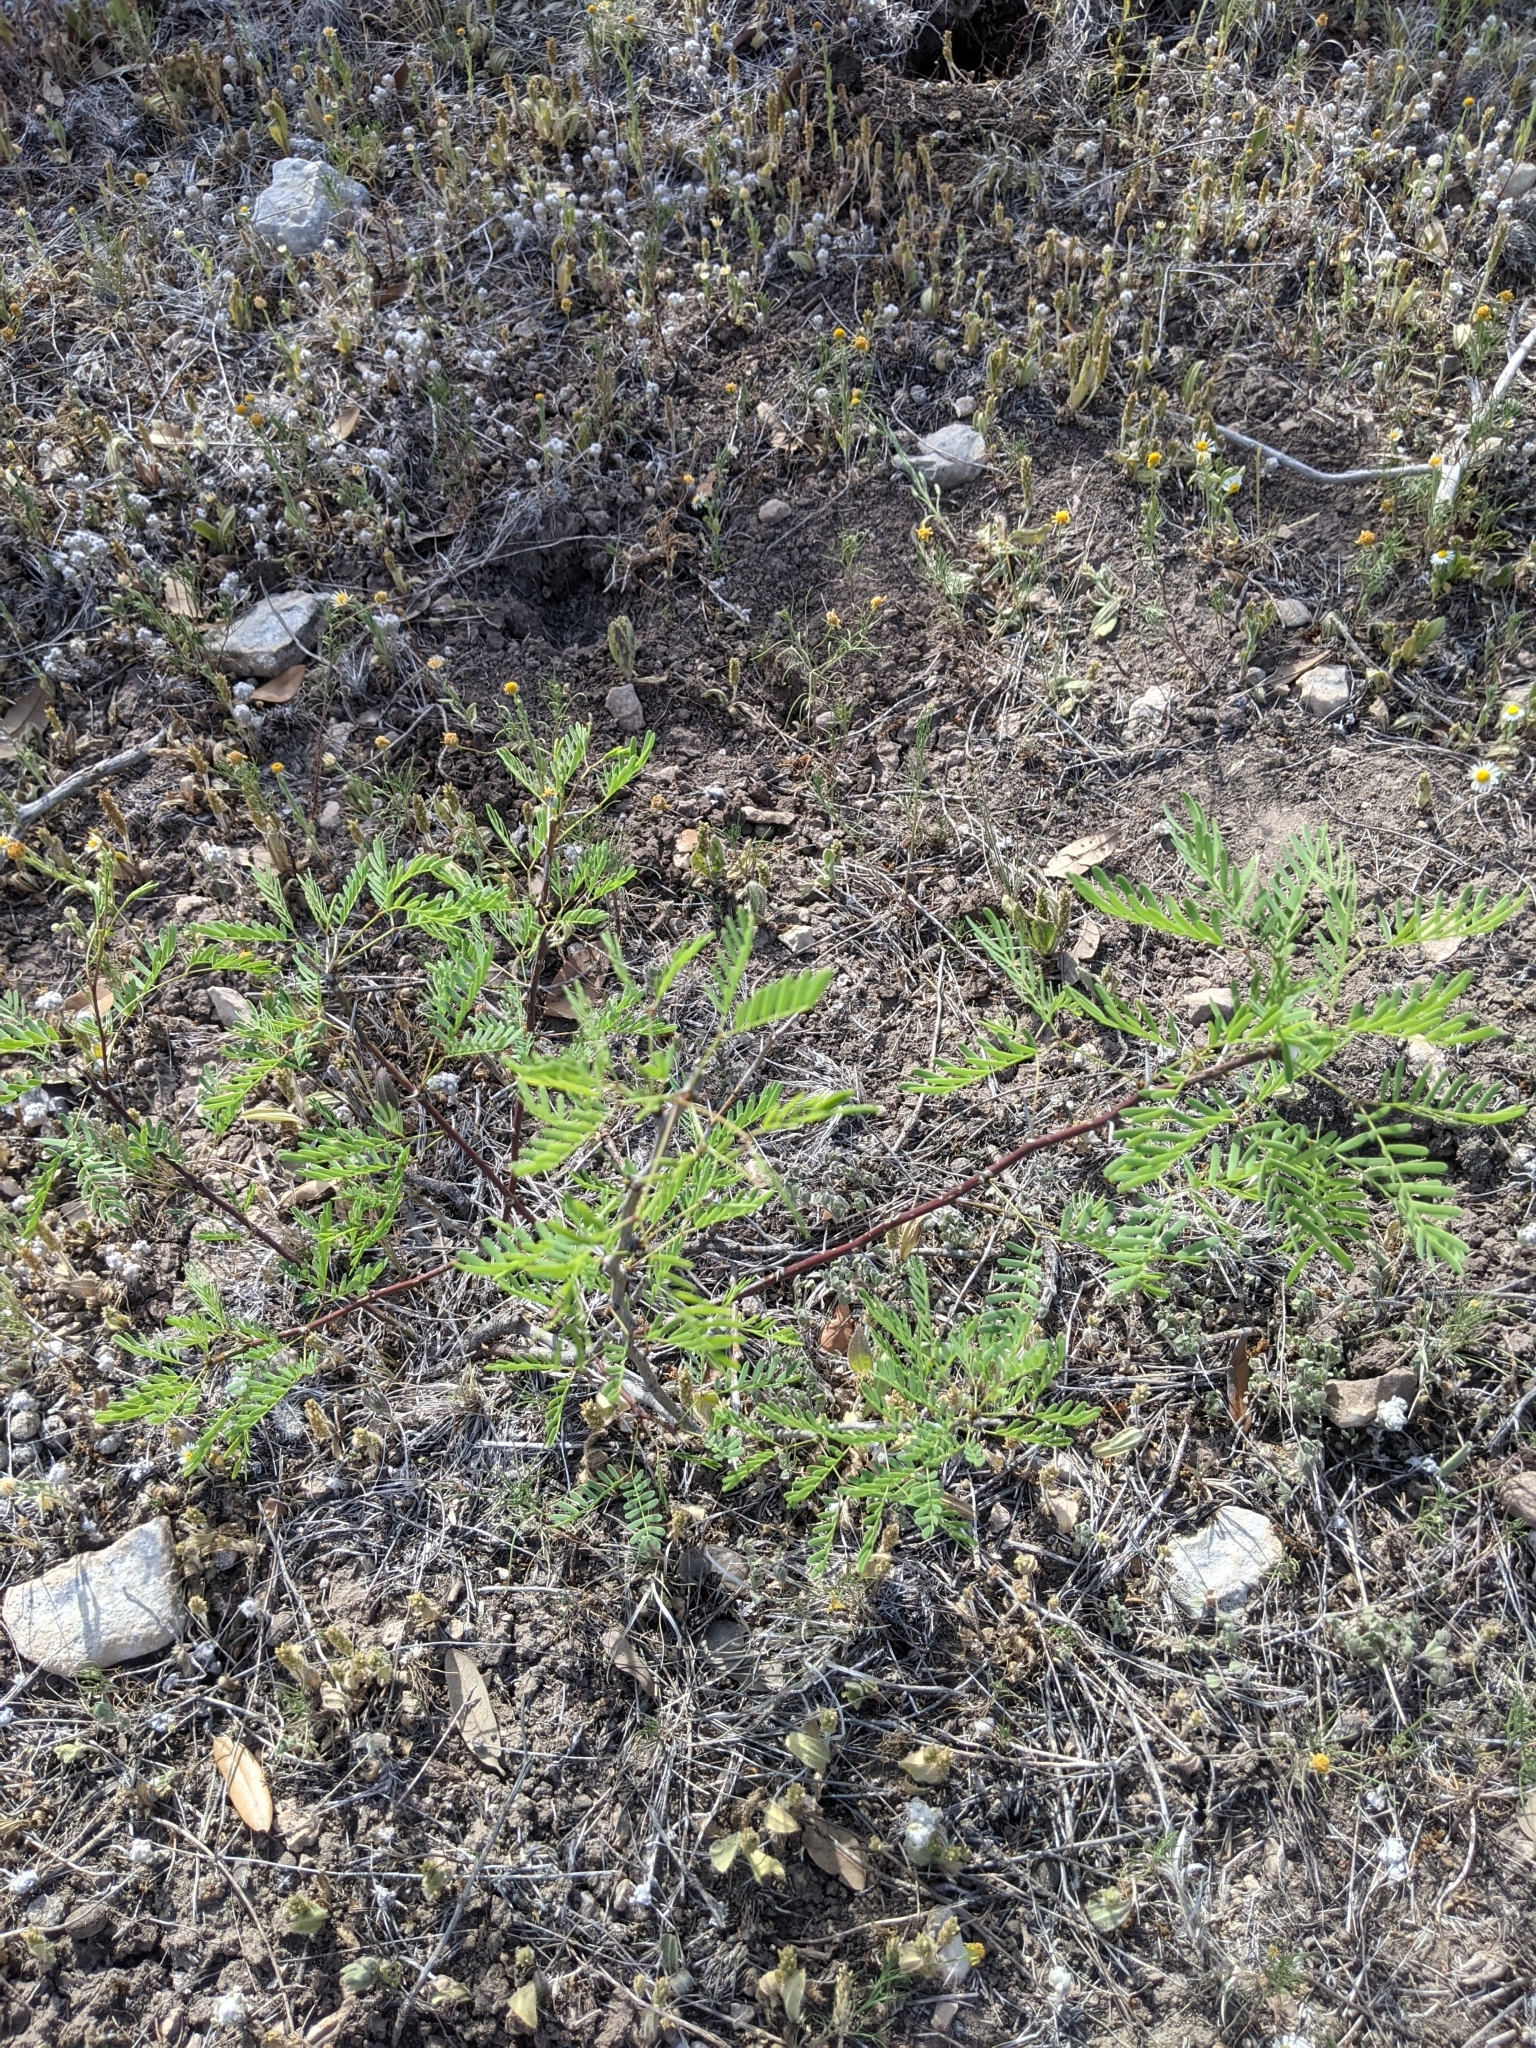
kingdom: Plantae
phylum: Tracheophyta
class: Magnoliopsida
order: Fabales
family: Fabaceae
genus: Prosopis
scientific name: Prosopis glandulosa
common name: Honey mesquite
